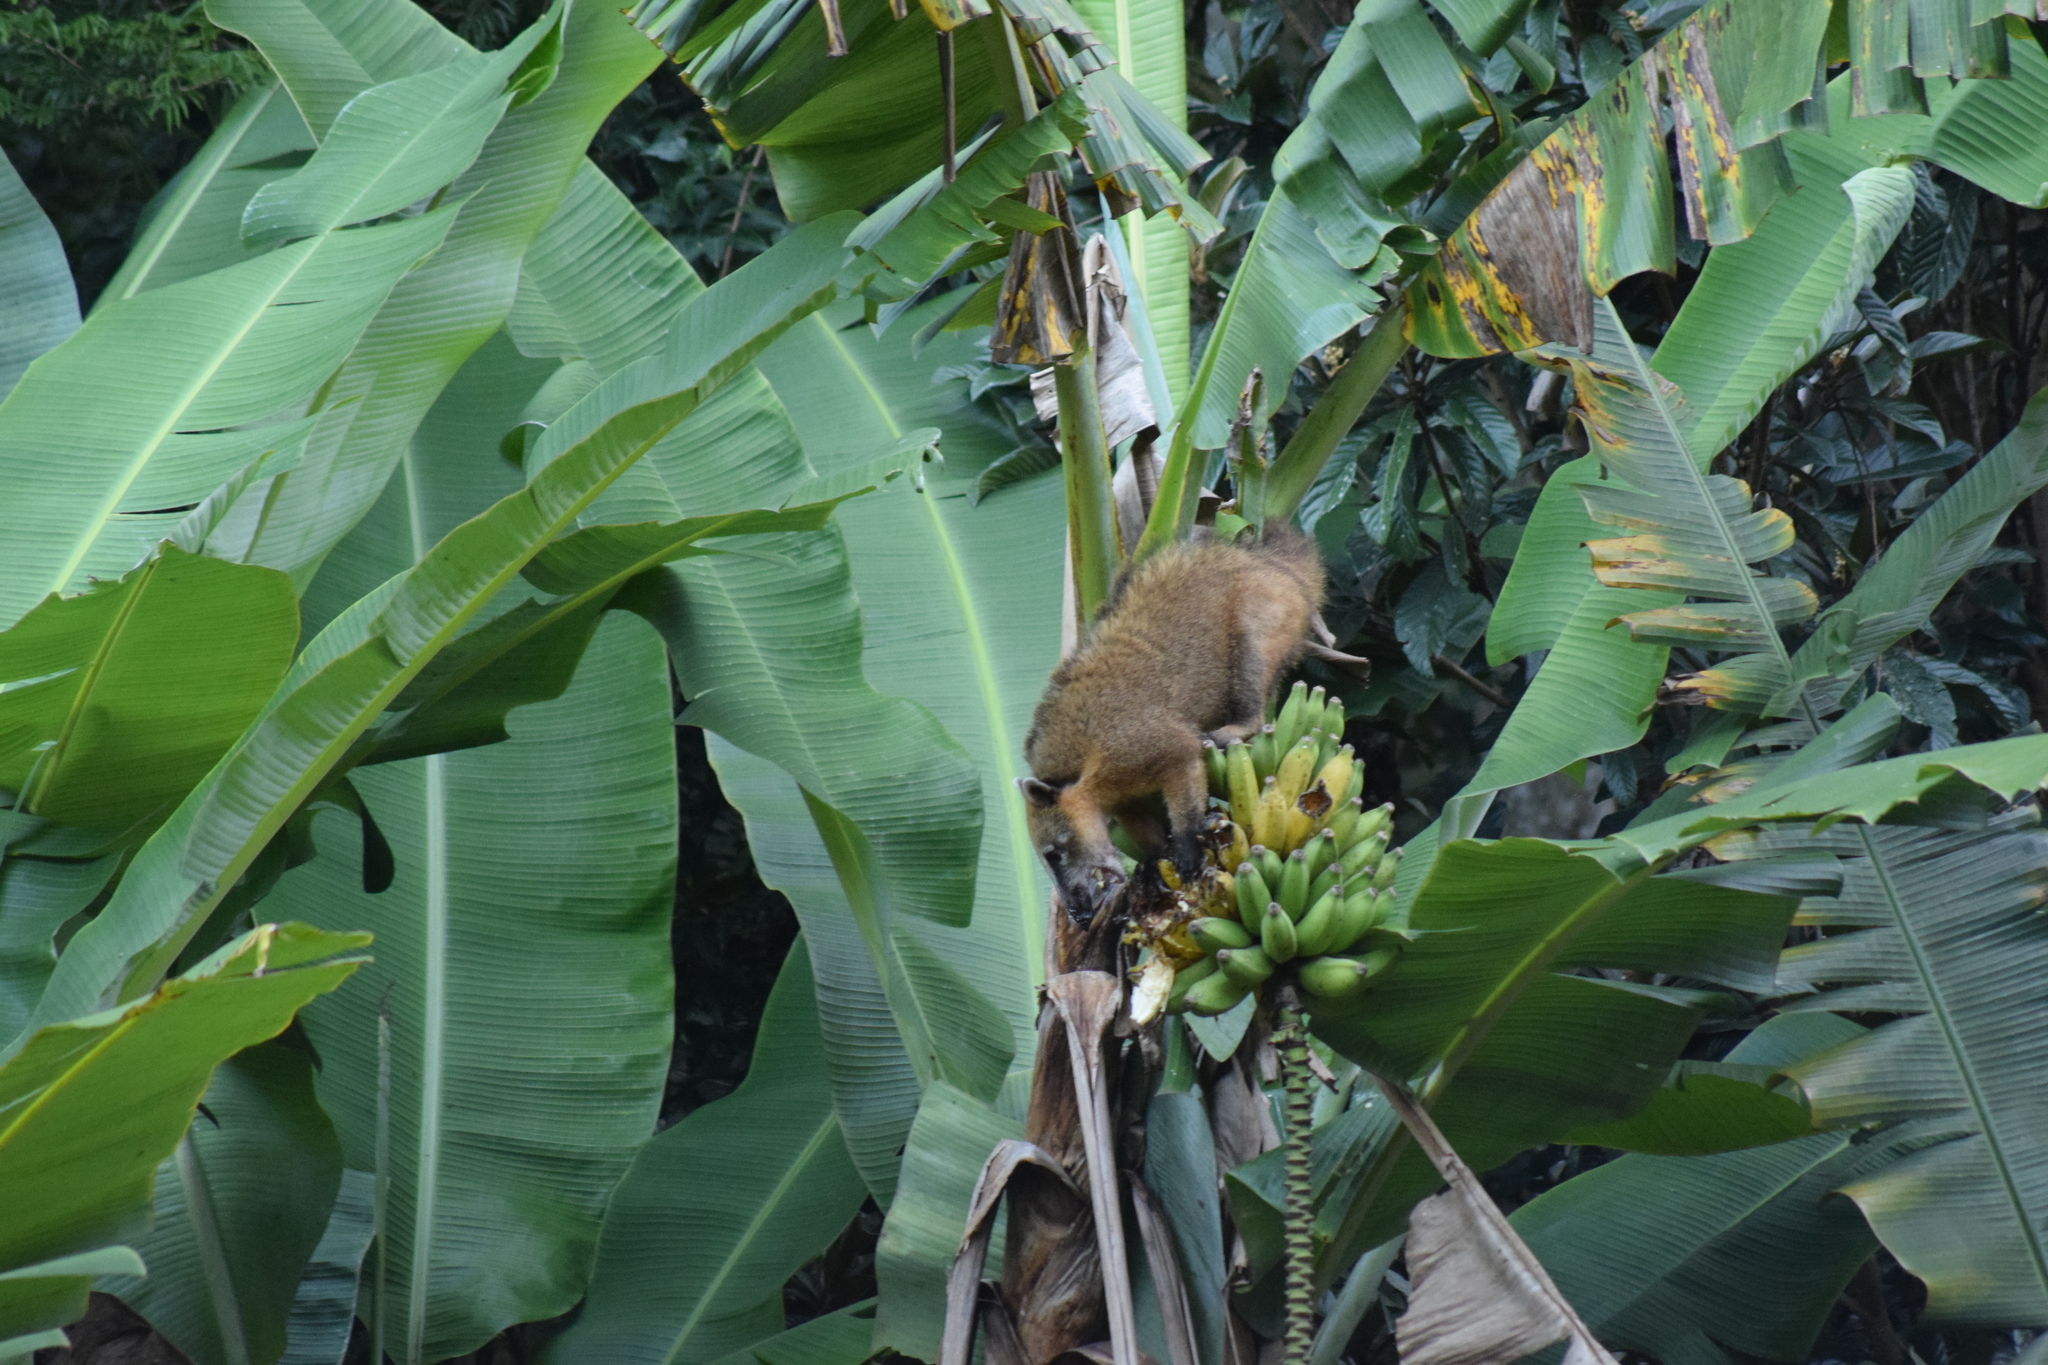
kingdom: Animalia
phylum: Chordata
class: Mammalia
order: Carnivora
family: Procyonidae
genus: Nasua
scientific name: Nasua nasua
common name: South american coati
